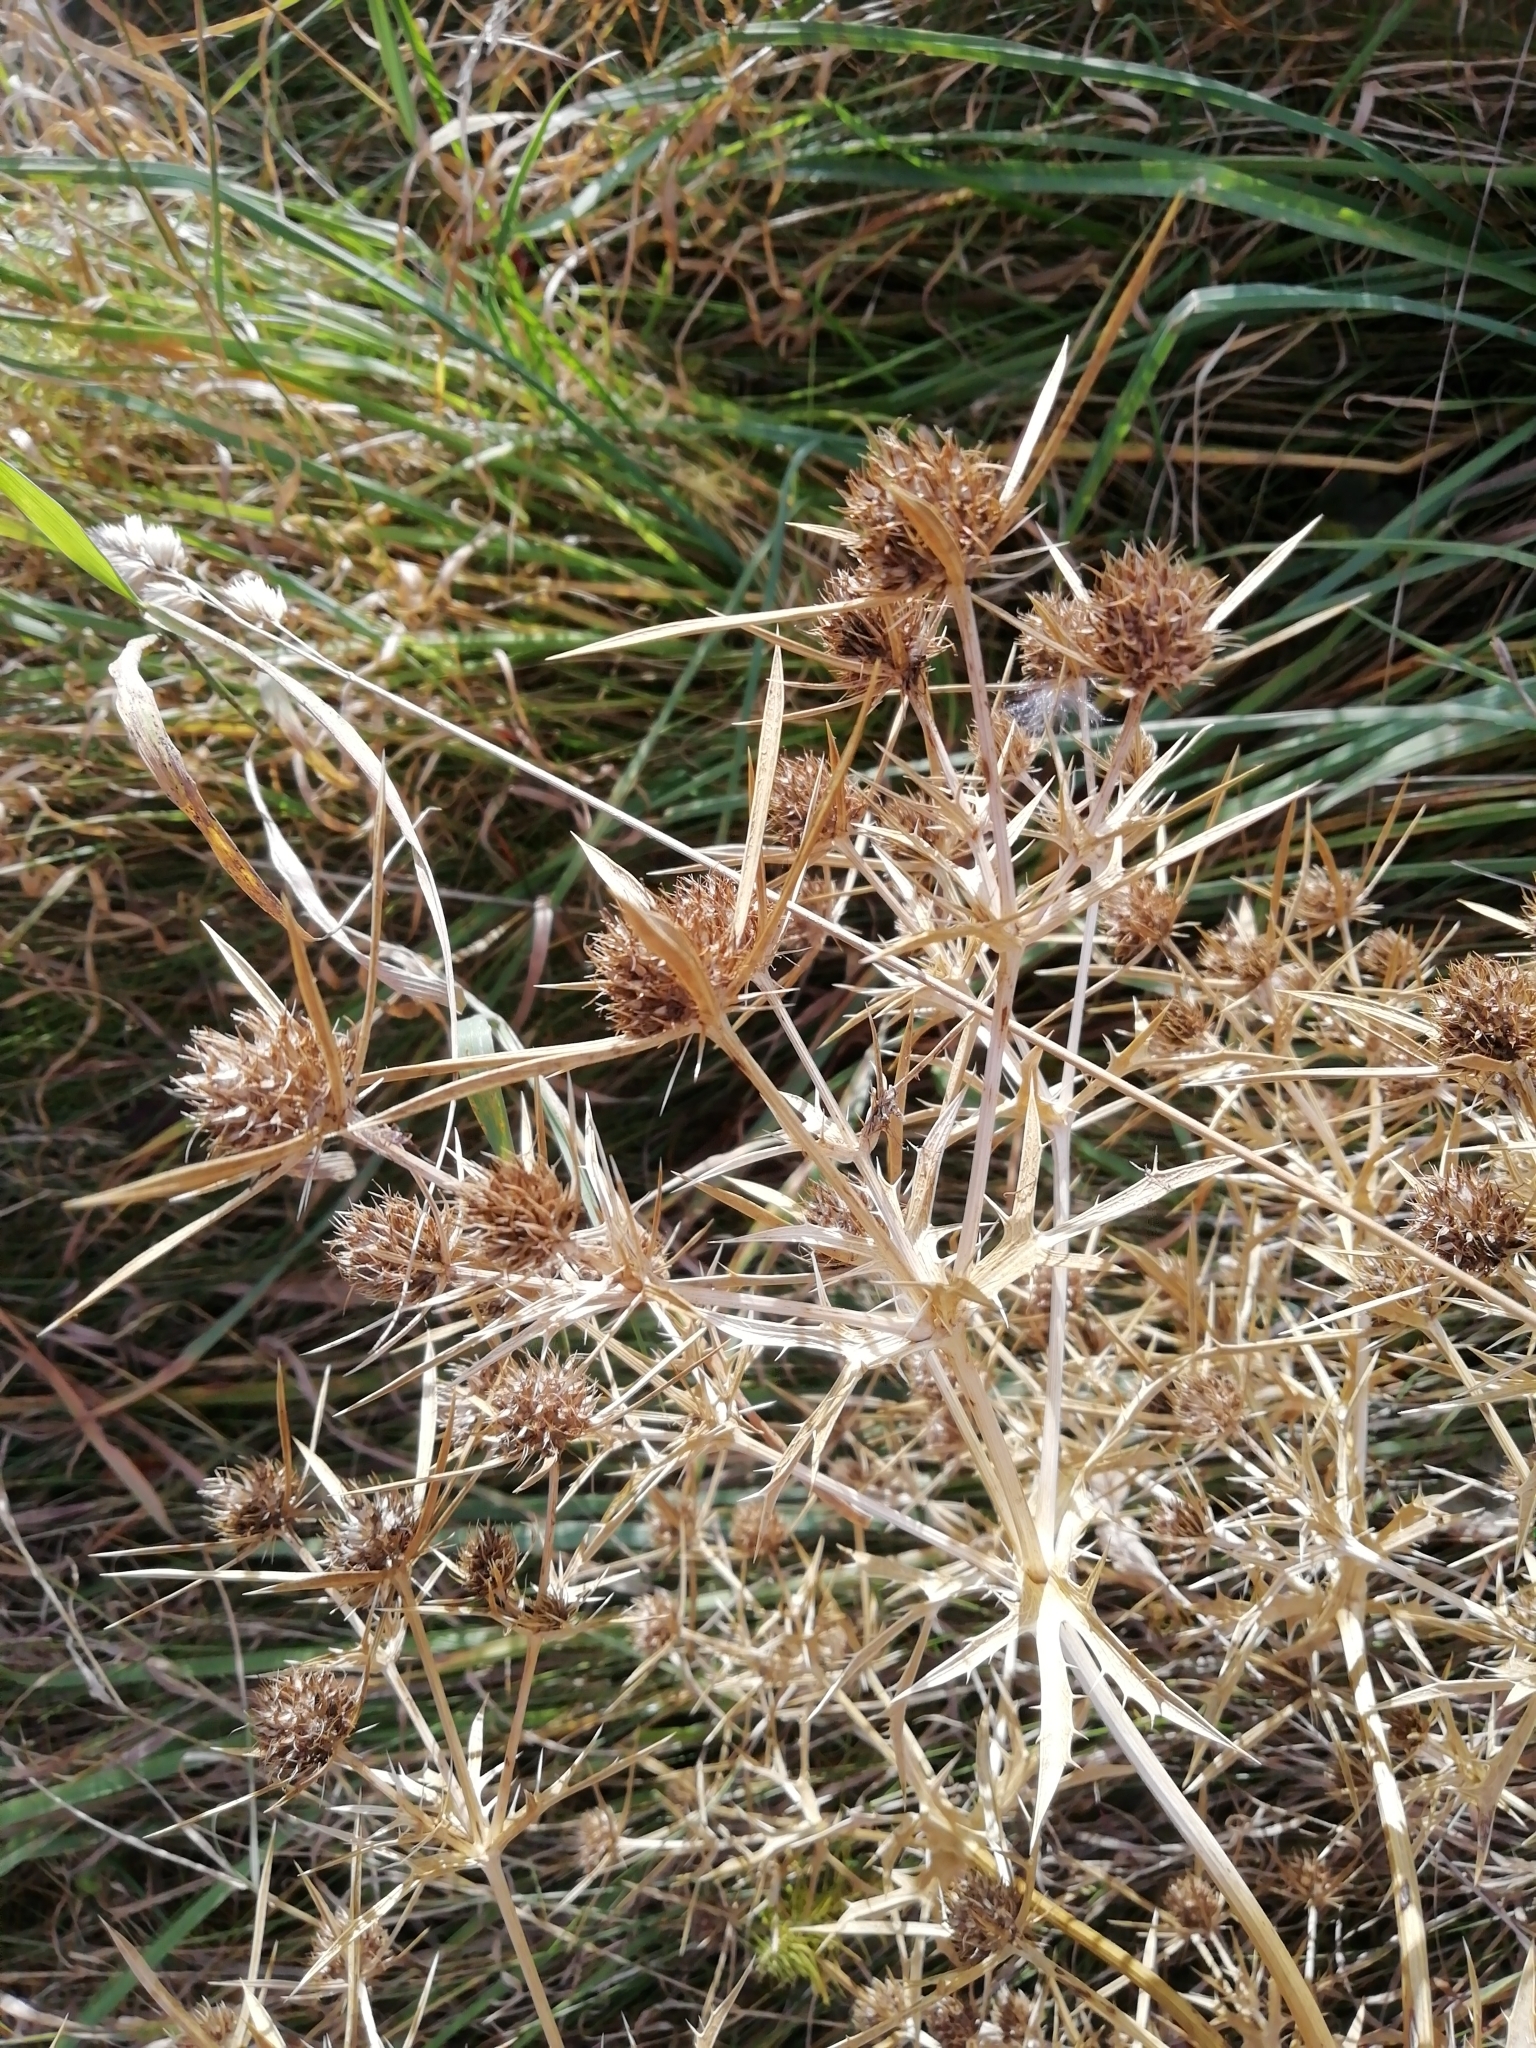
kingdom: Plantae
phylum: Tracheophyta
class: Magnoliopsida
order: Apiales
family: Apiaceae
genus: Eryngium
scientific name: Eryngium campestre
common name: Field eryngo
